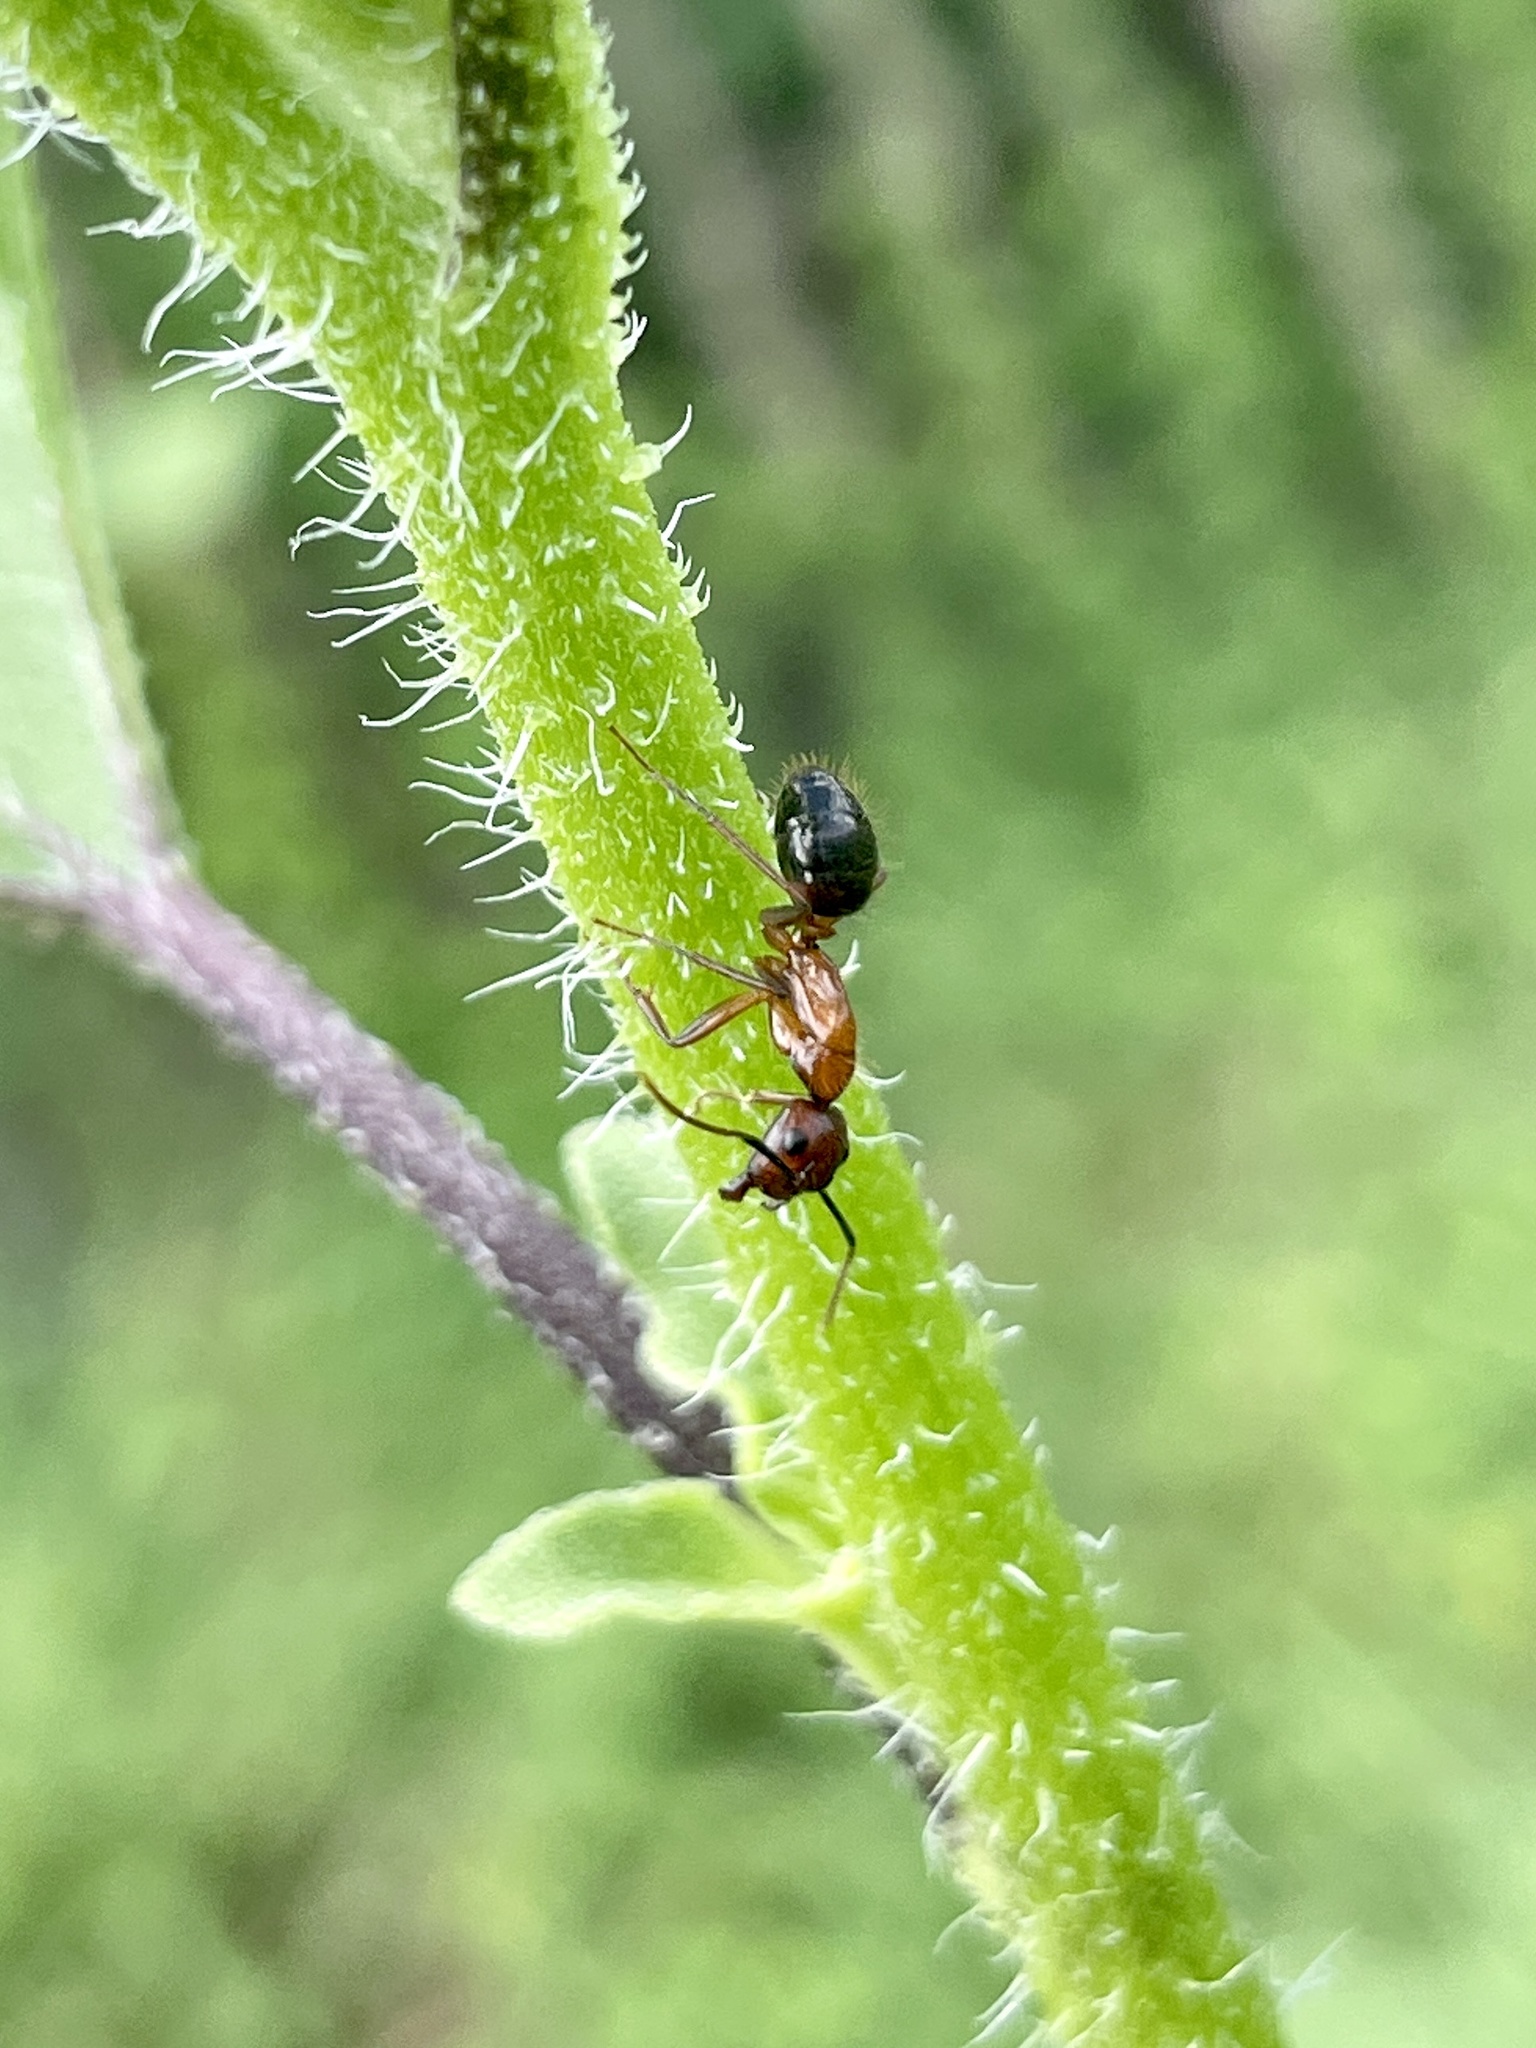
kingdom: Animalia
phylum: Arthropoda
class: Insecta
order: Hymenoptera
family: Formicidae
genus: Camponotus
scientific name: Camponotus atriceps
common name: Florida carpenter ant
